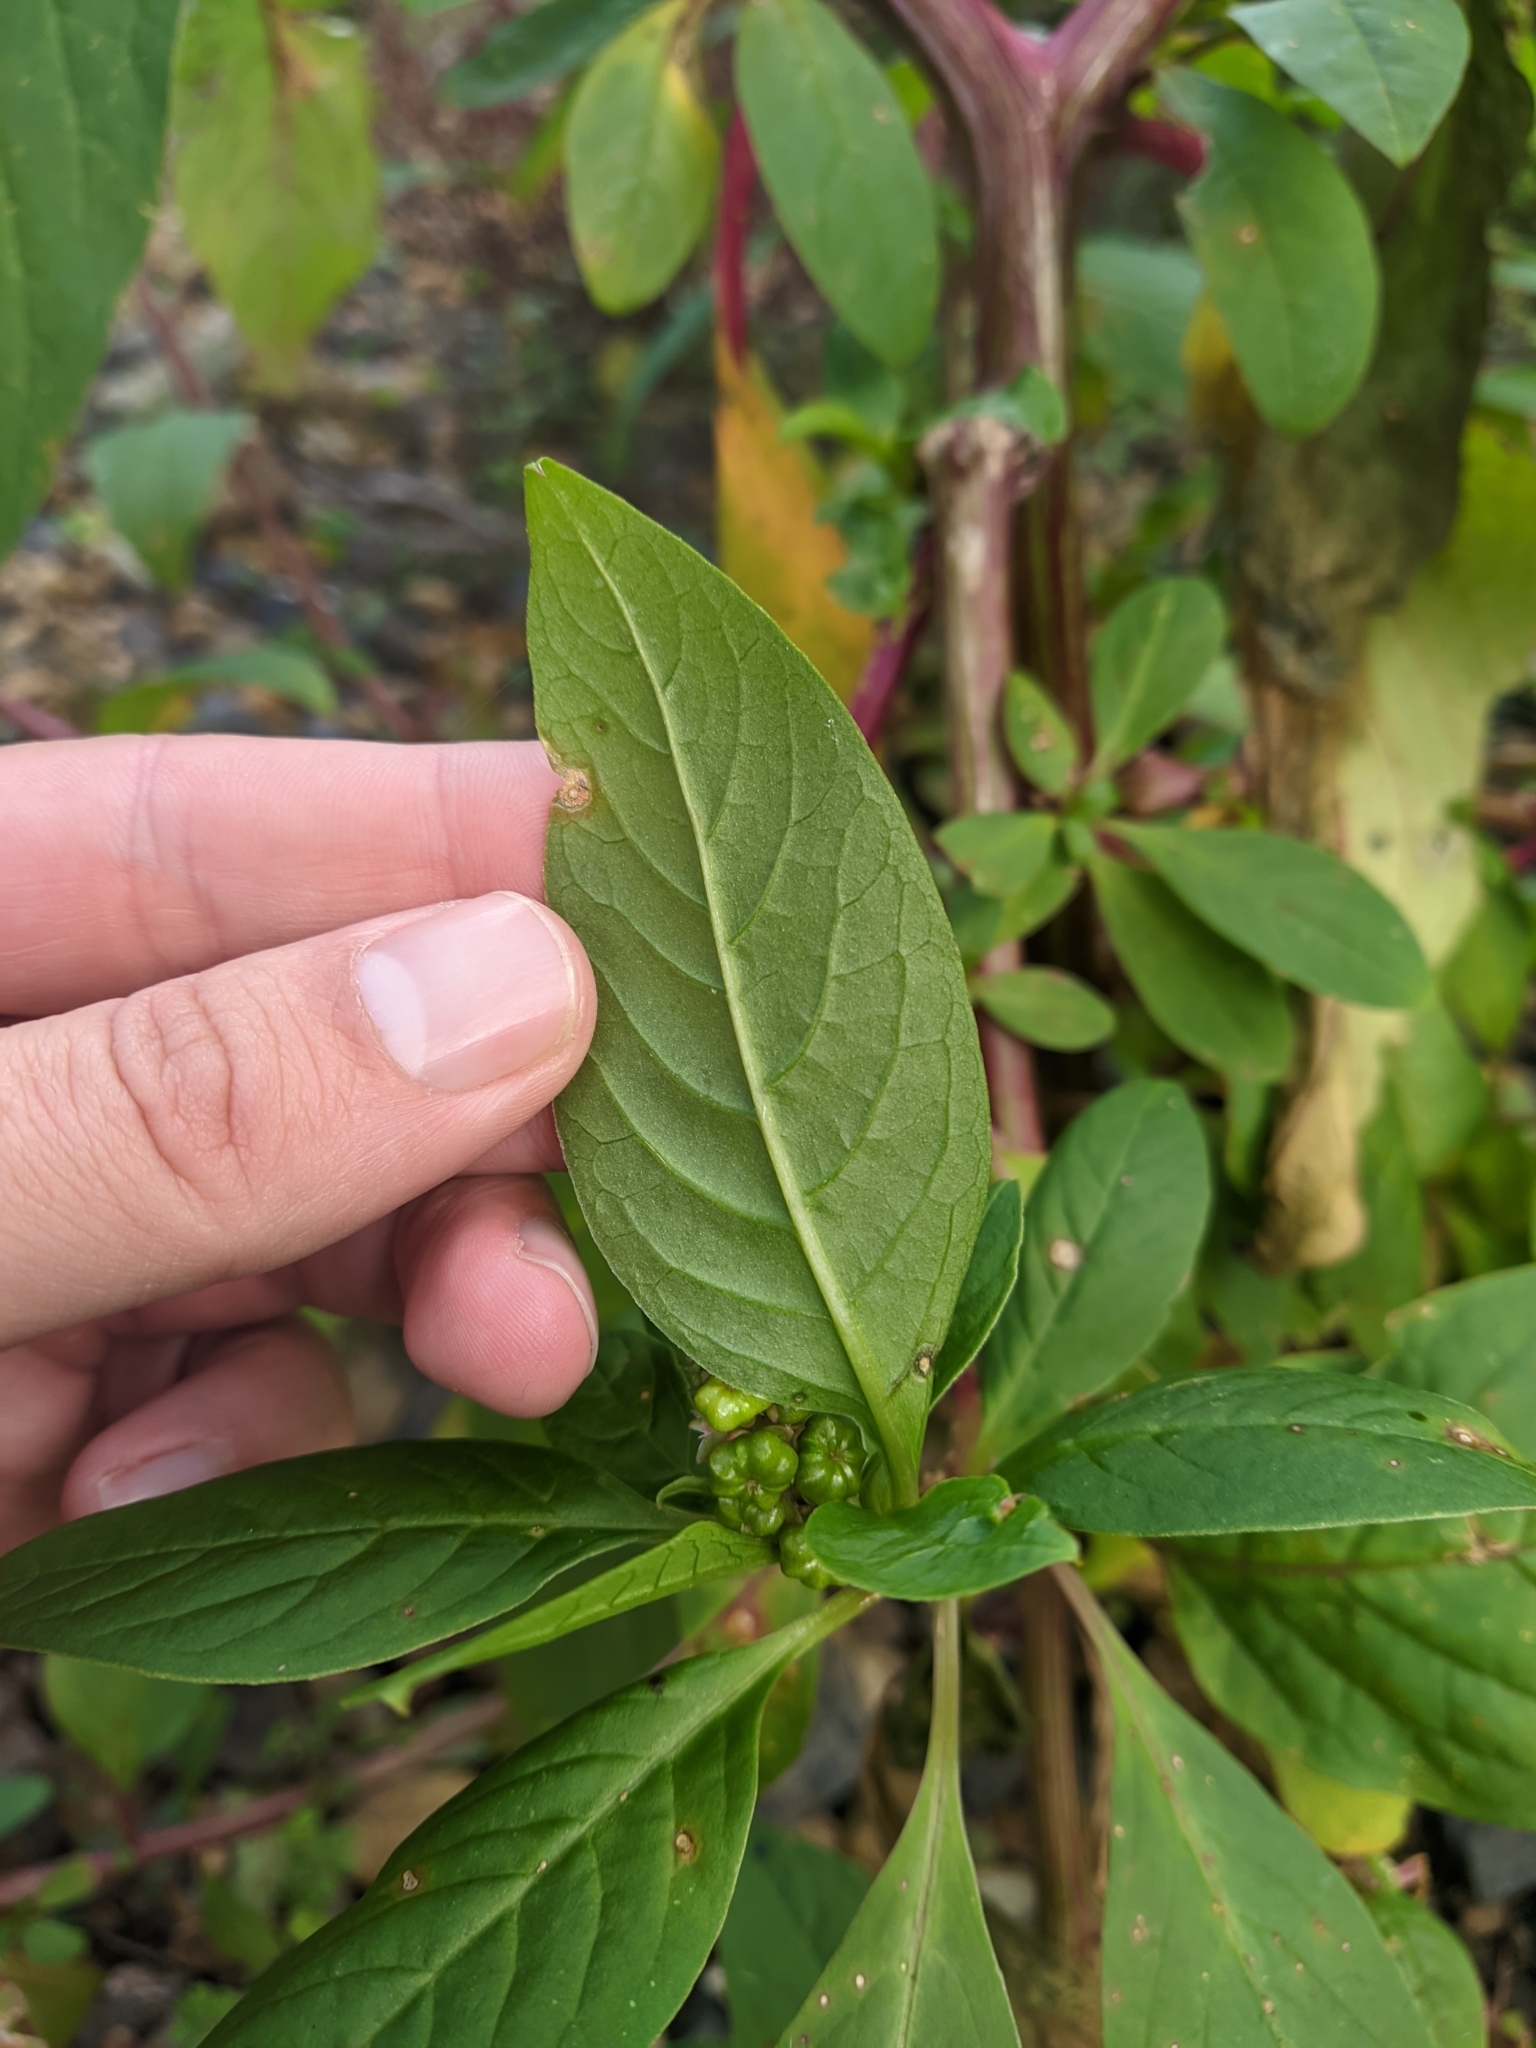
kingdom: Plantae
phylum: Tracheophyta
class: Magnoliopsida
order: Caryophyllales
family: Phytolaccaceae
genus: Phytolacca
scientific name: Phytolacca icosandra
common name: Button pokeweed
